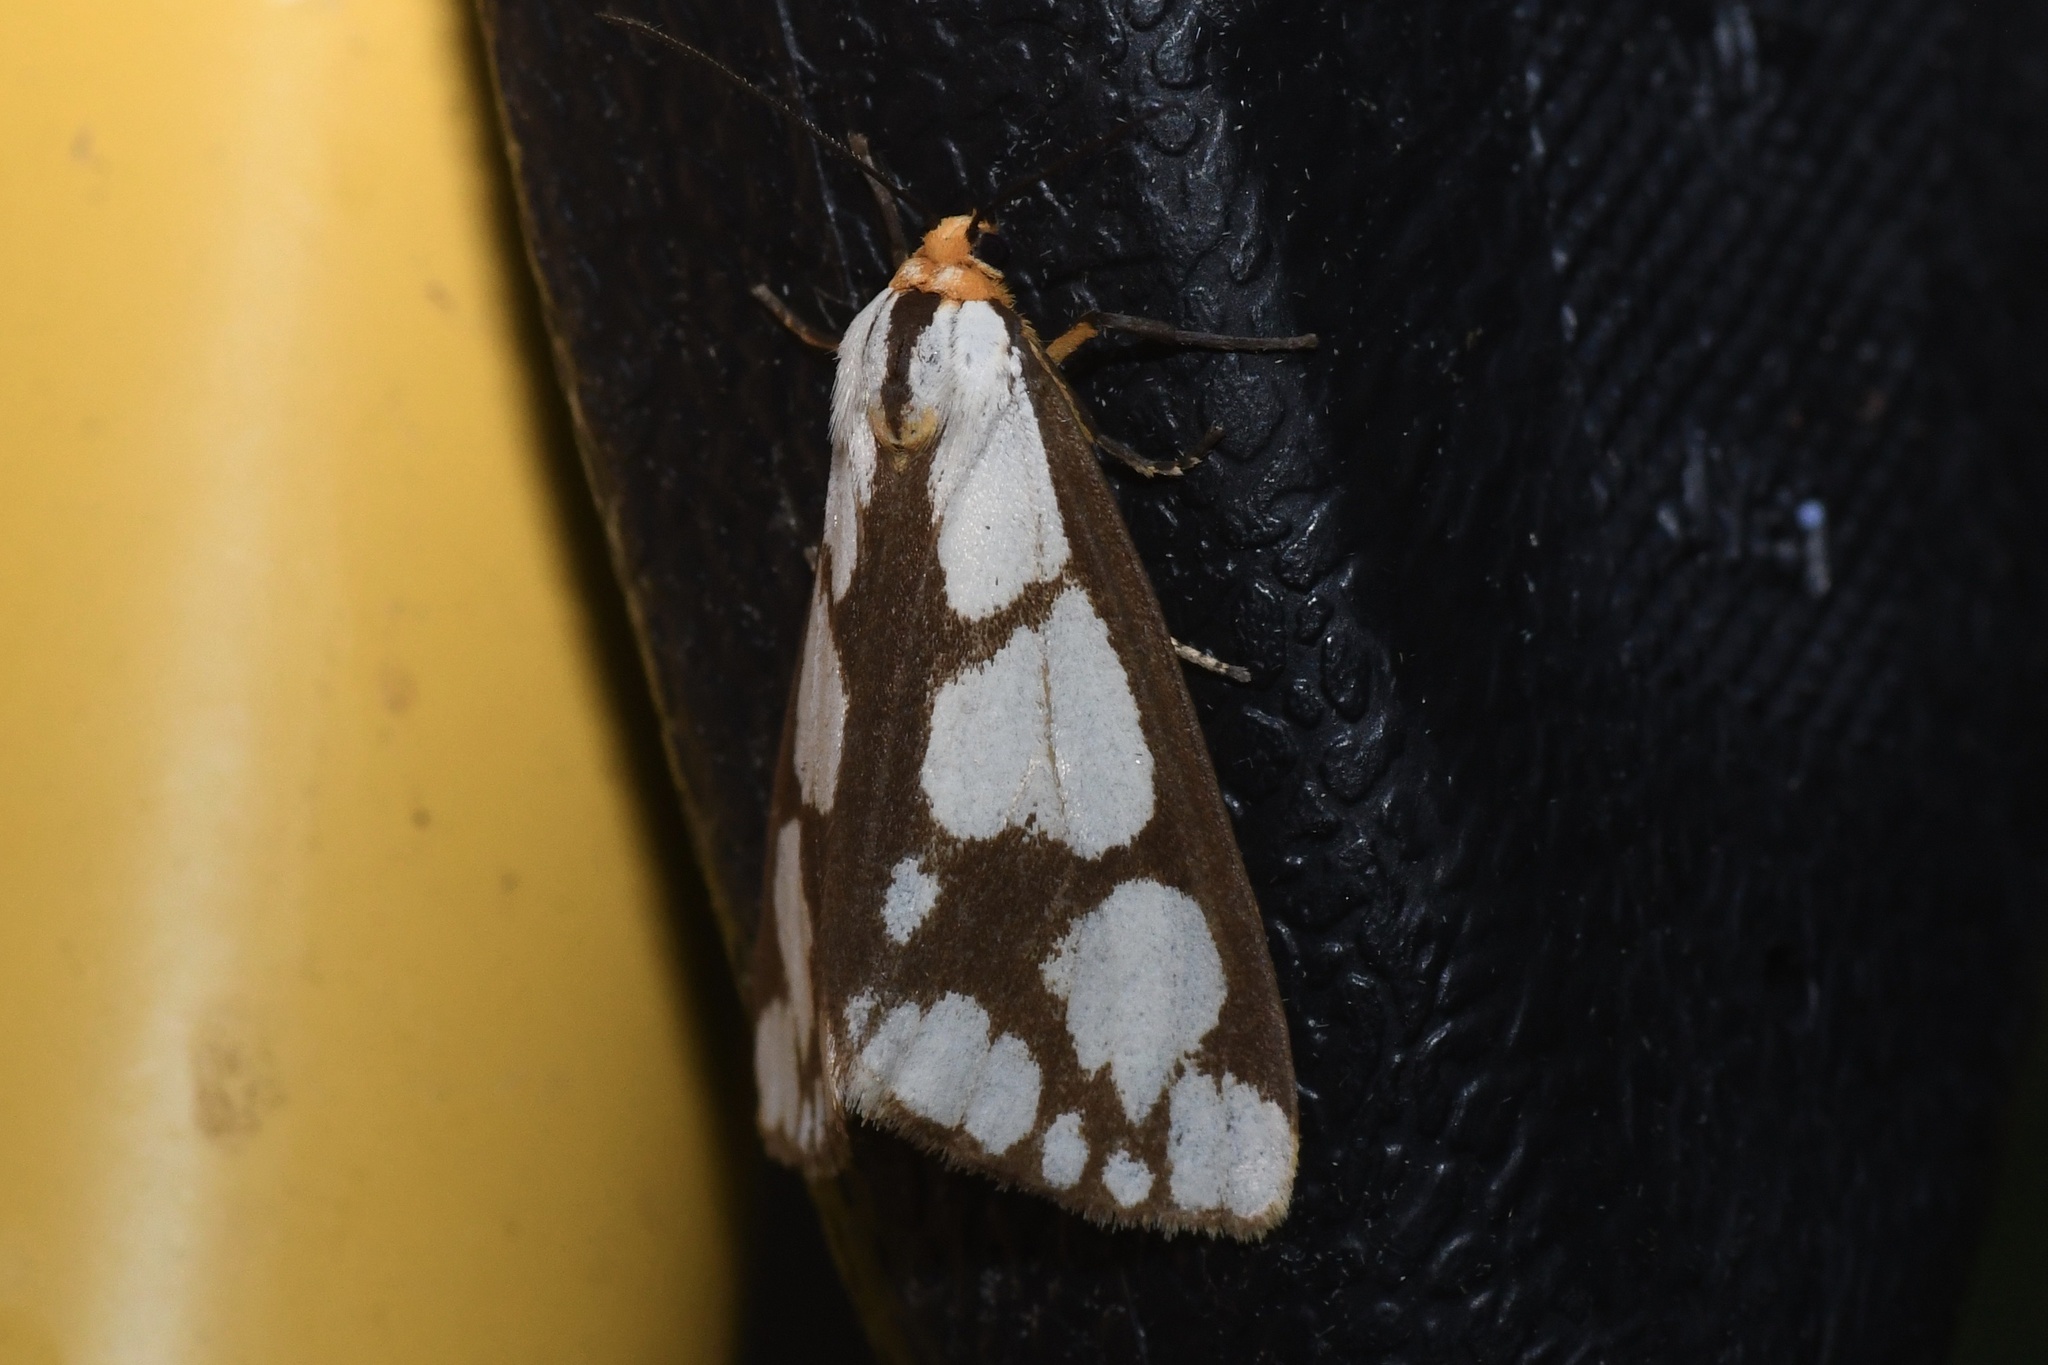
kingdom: Animalia
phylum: Arthropoda
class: Insecta
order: Lepidoptera
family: Erebidae
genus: Haploa
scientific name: Haploa confusa
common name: Confused haploa moth
